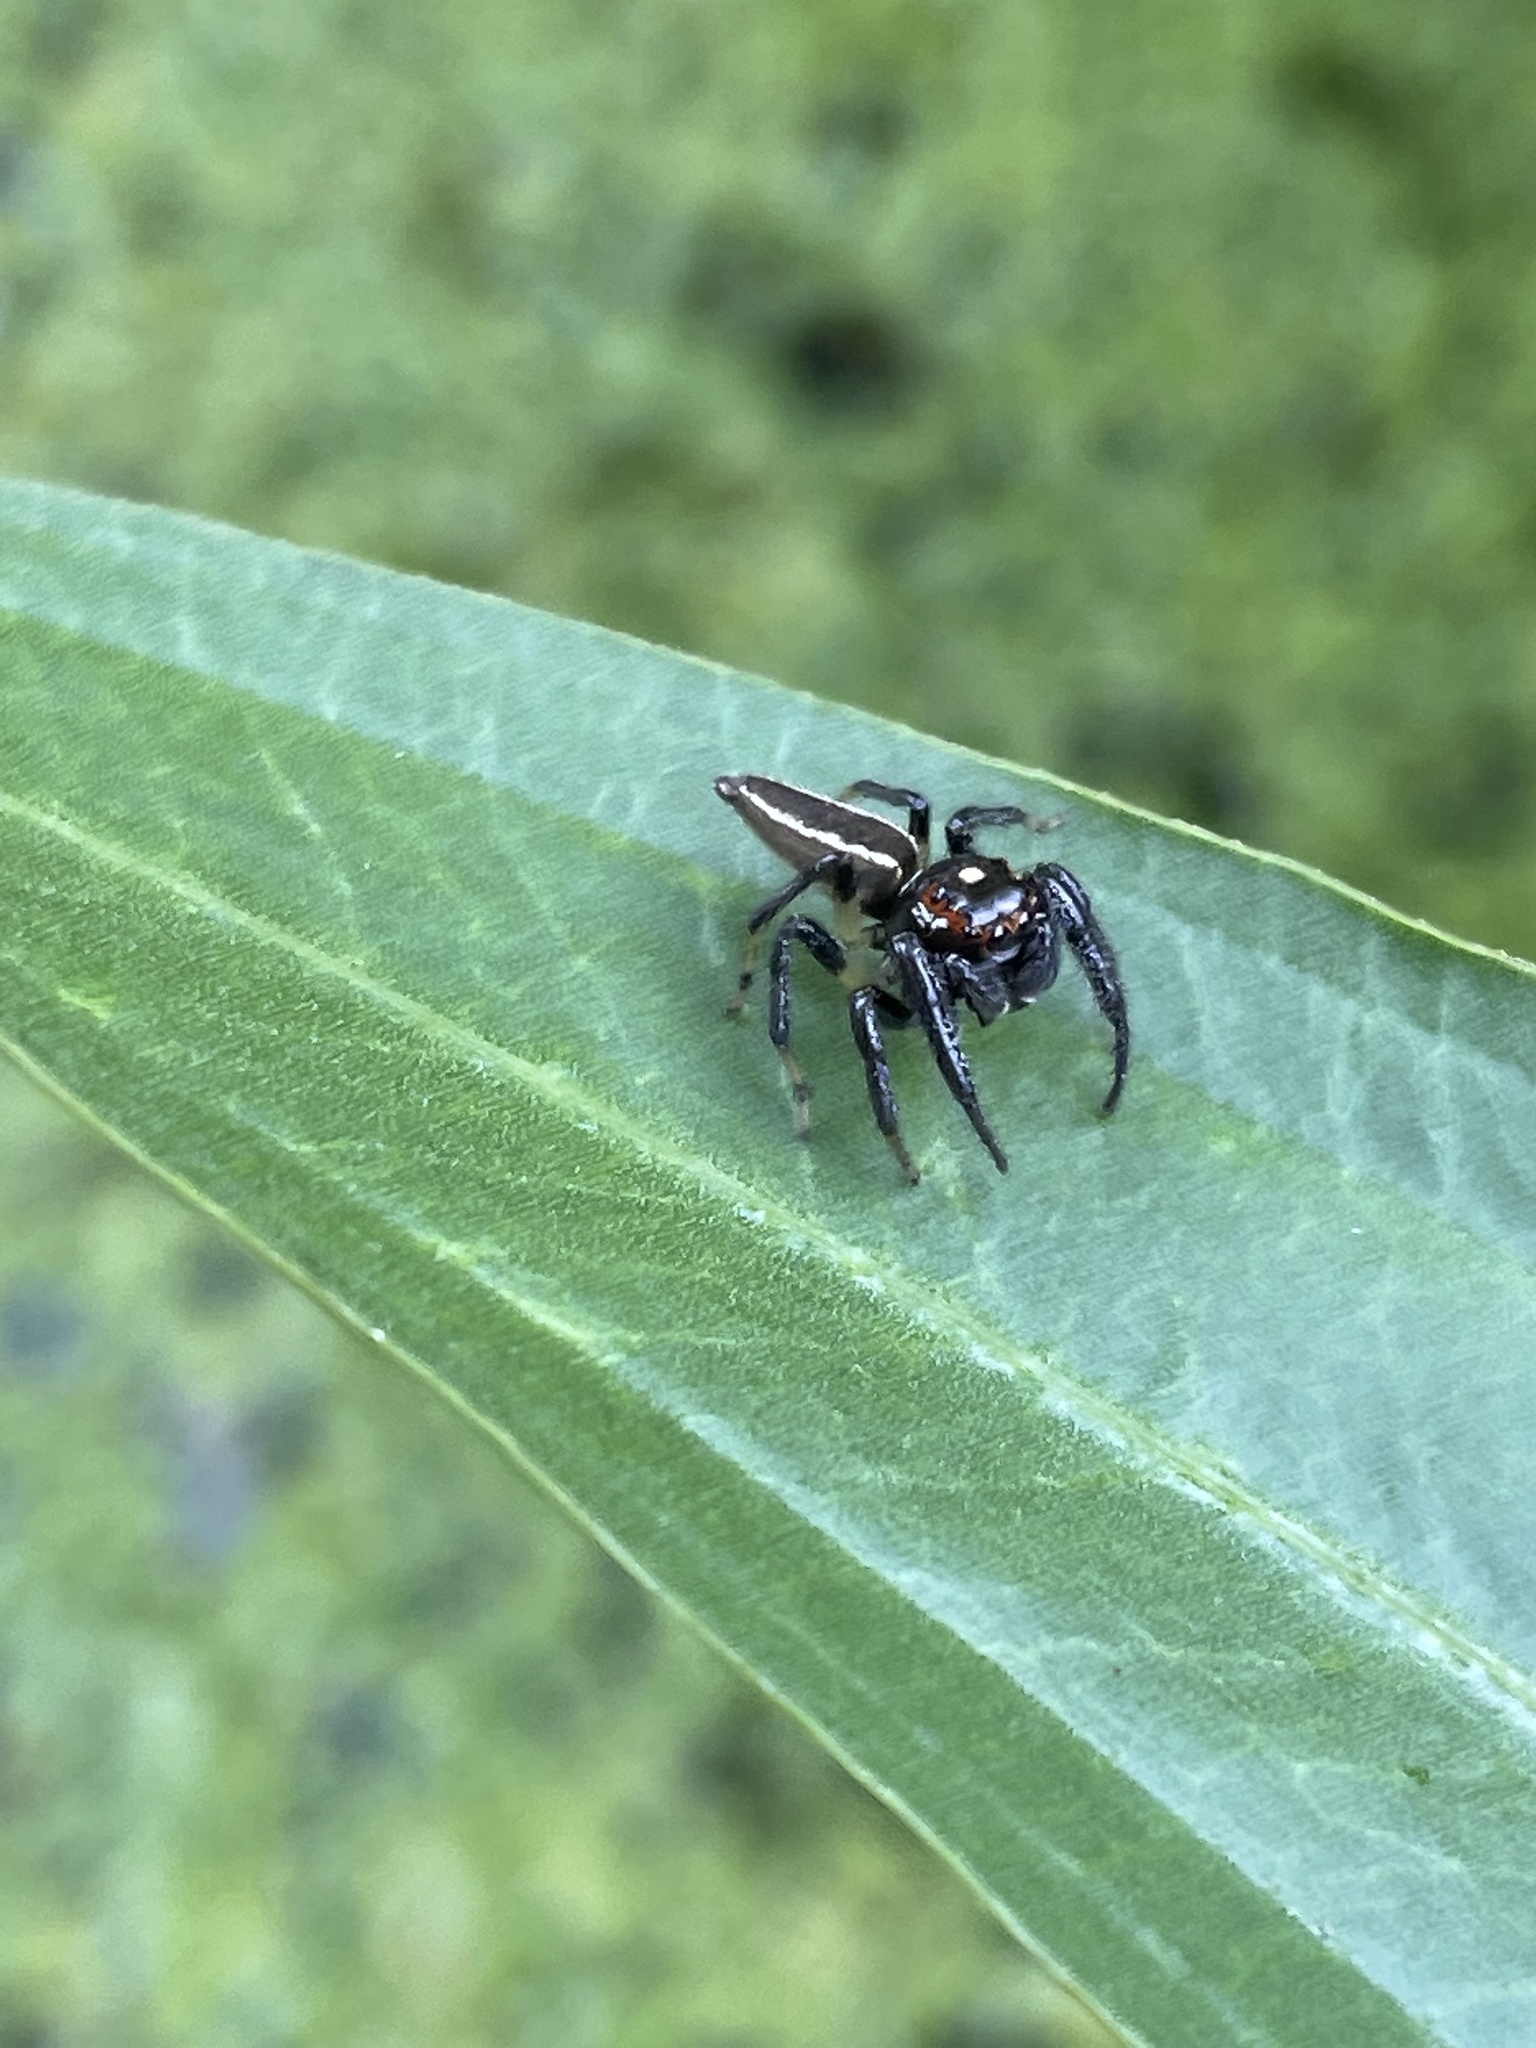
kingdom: Animalia
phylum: Arthropoda
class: Arachnida
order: Araneae
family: Salticidae
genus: Colonus
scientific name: Colonus sylvanus
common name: Jumping spiders
